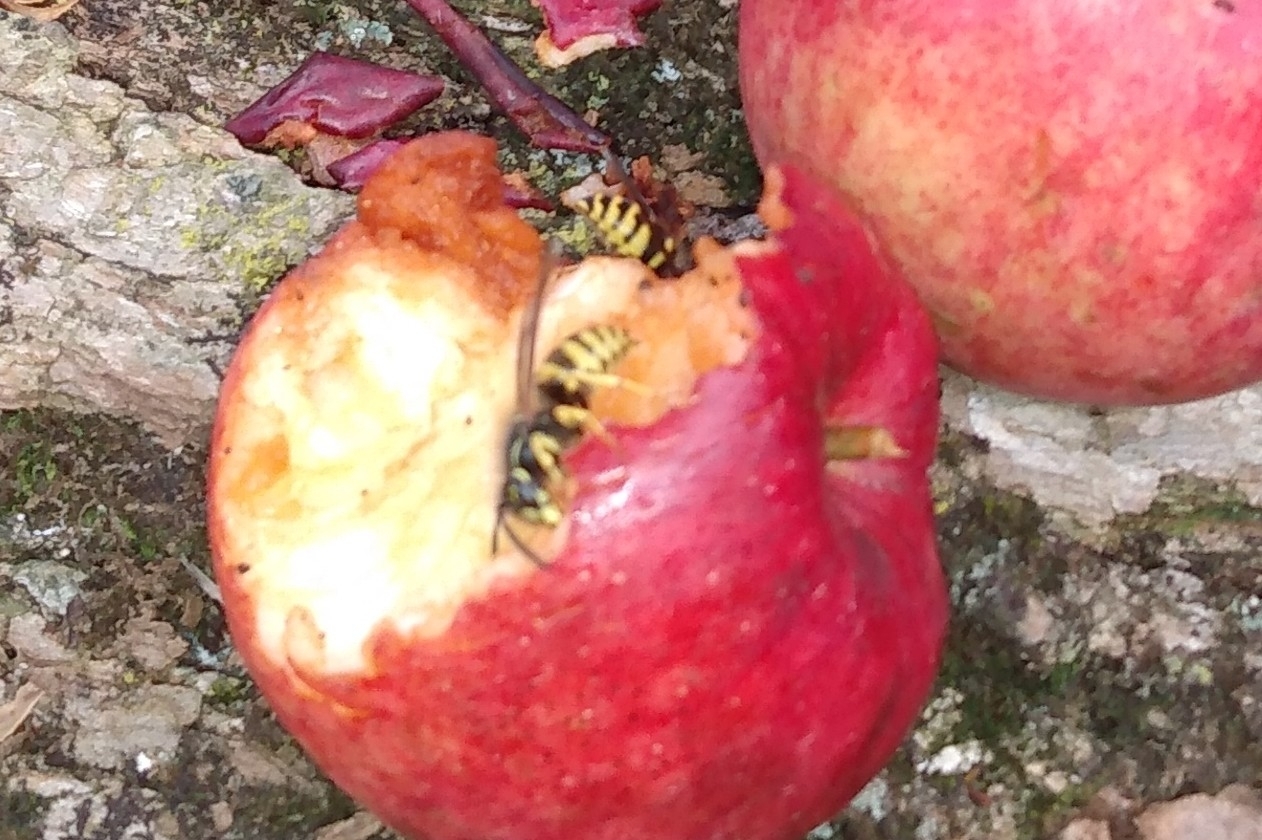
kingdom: Animalia
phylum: Arthropoda
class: Insecta
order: Hymenoptera
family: Vespidae
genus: Vespula
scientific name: Vespula maculifrons
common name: Eastern yellowjacket
